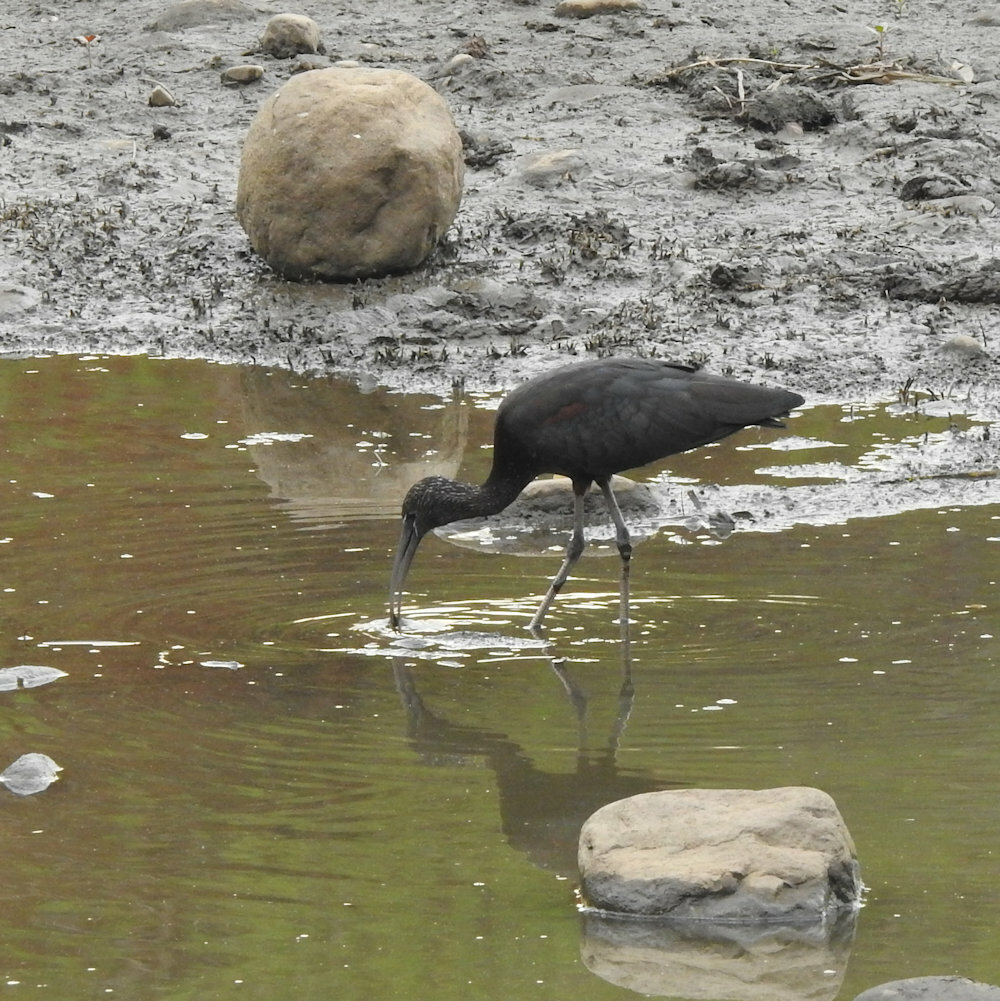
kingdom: Animalia
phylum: Chordata
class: Aves
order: Pelecaniformes
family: Threskiornithidae
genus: Plegadis
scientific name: Plegadis falcinellus
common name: Glossy ibis
